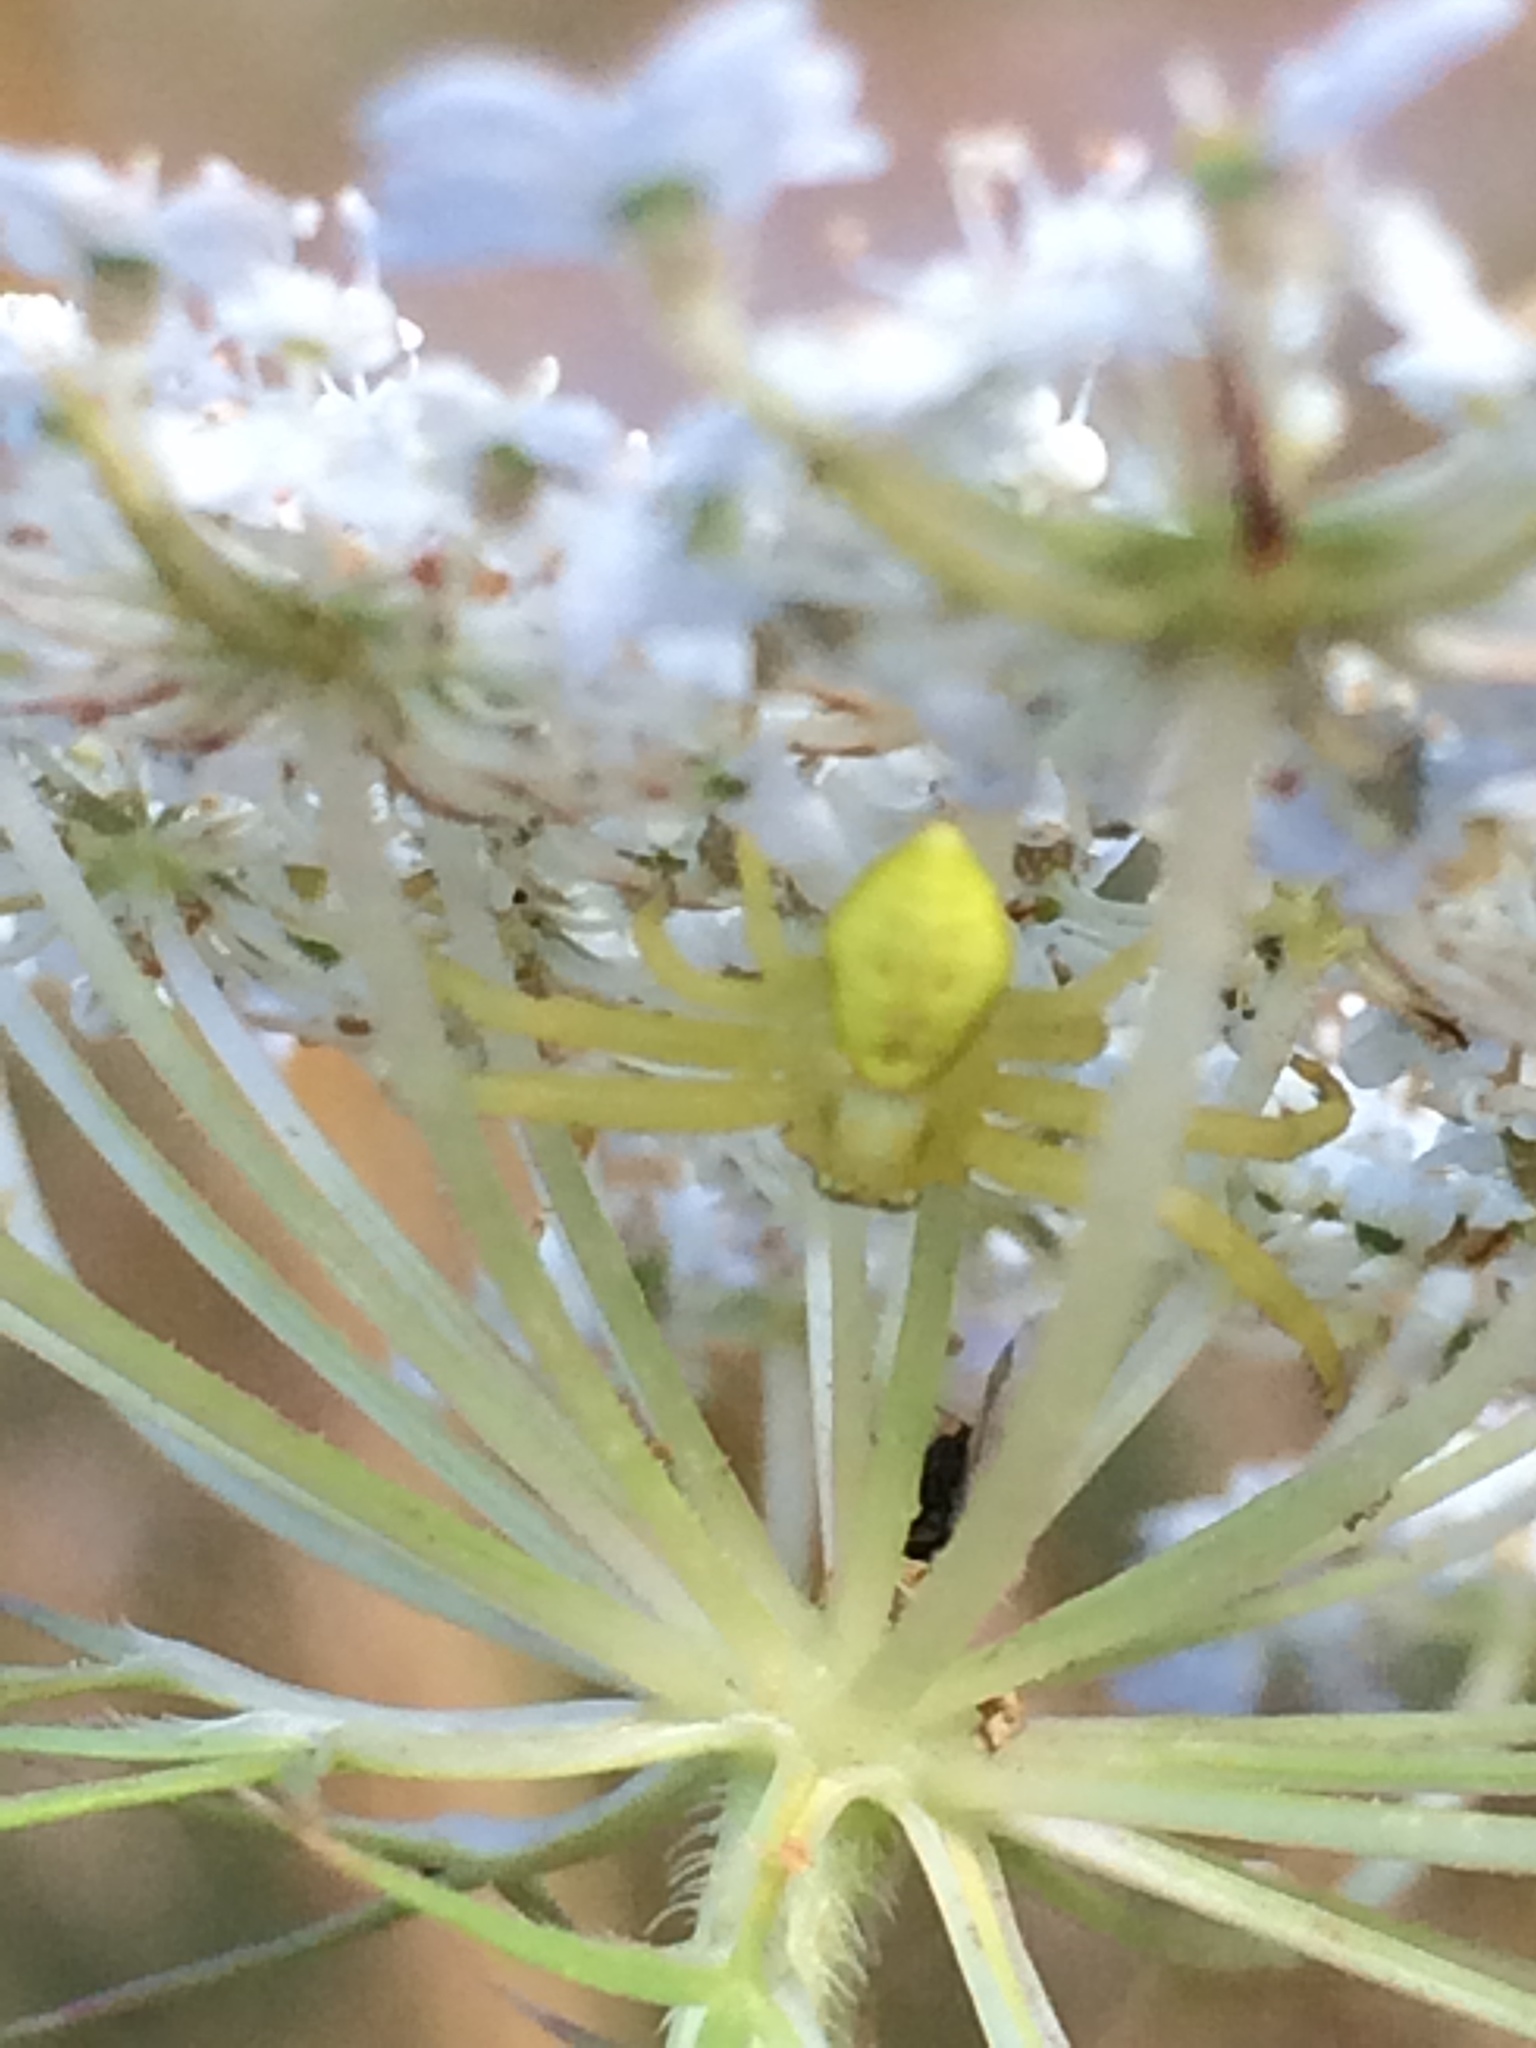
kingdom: Animalia
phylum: Arthropoda
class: Arachnida
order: Araneae
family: Thomisidae
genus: Misumena
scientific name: Misumena vatia
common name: Goldenrod crab spider
